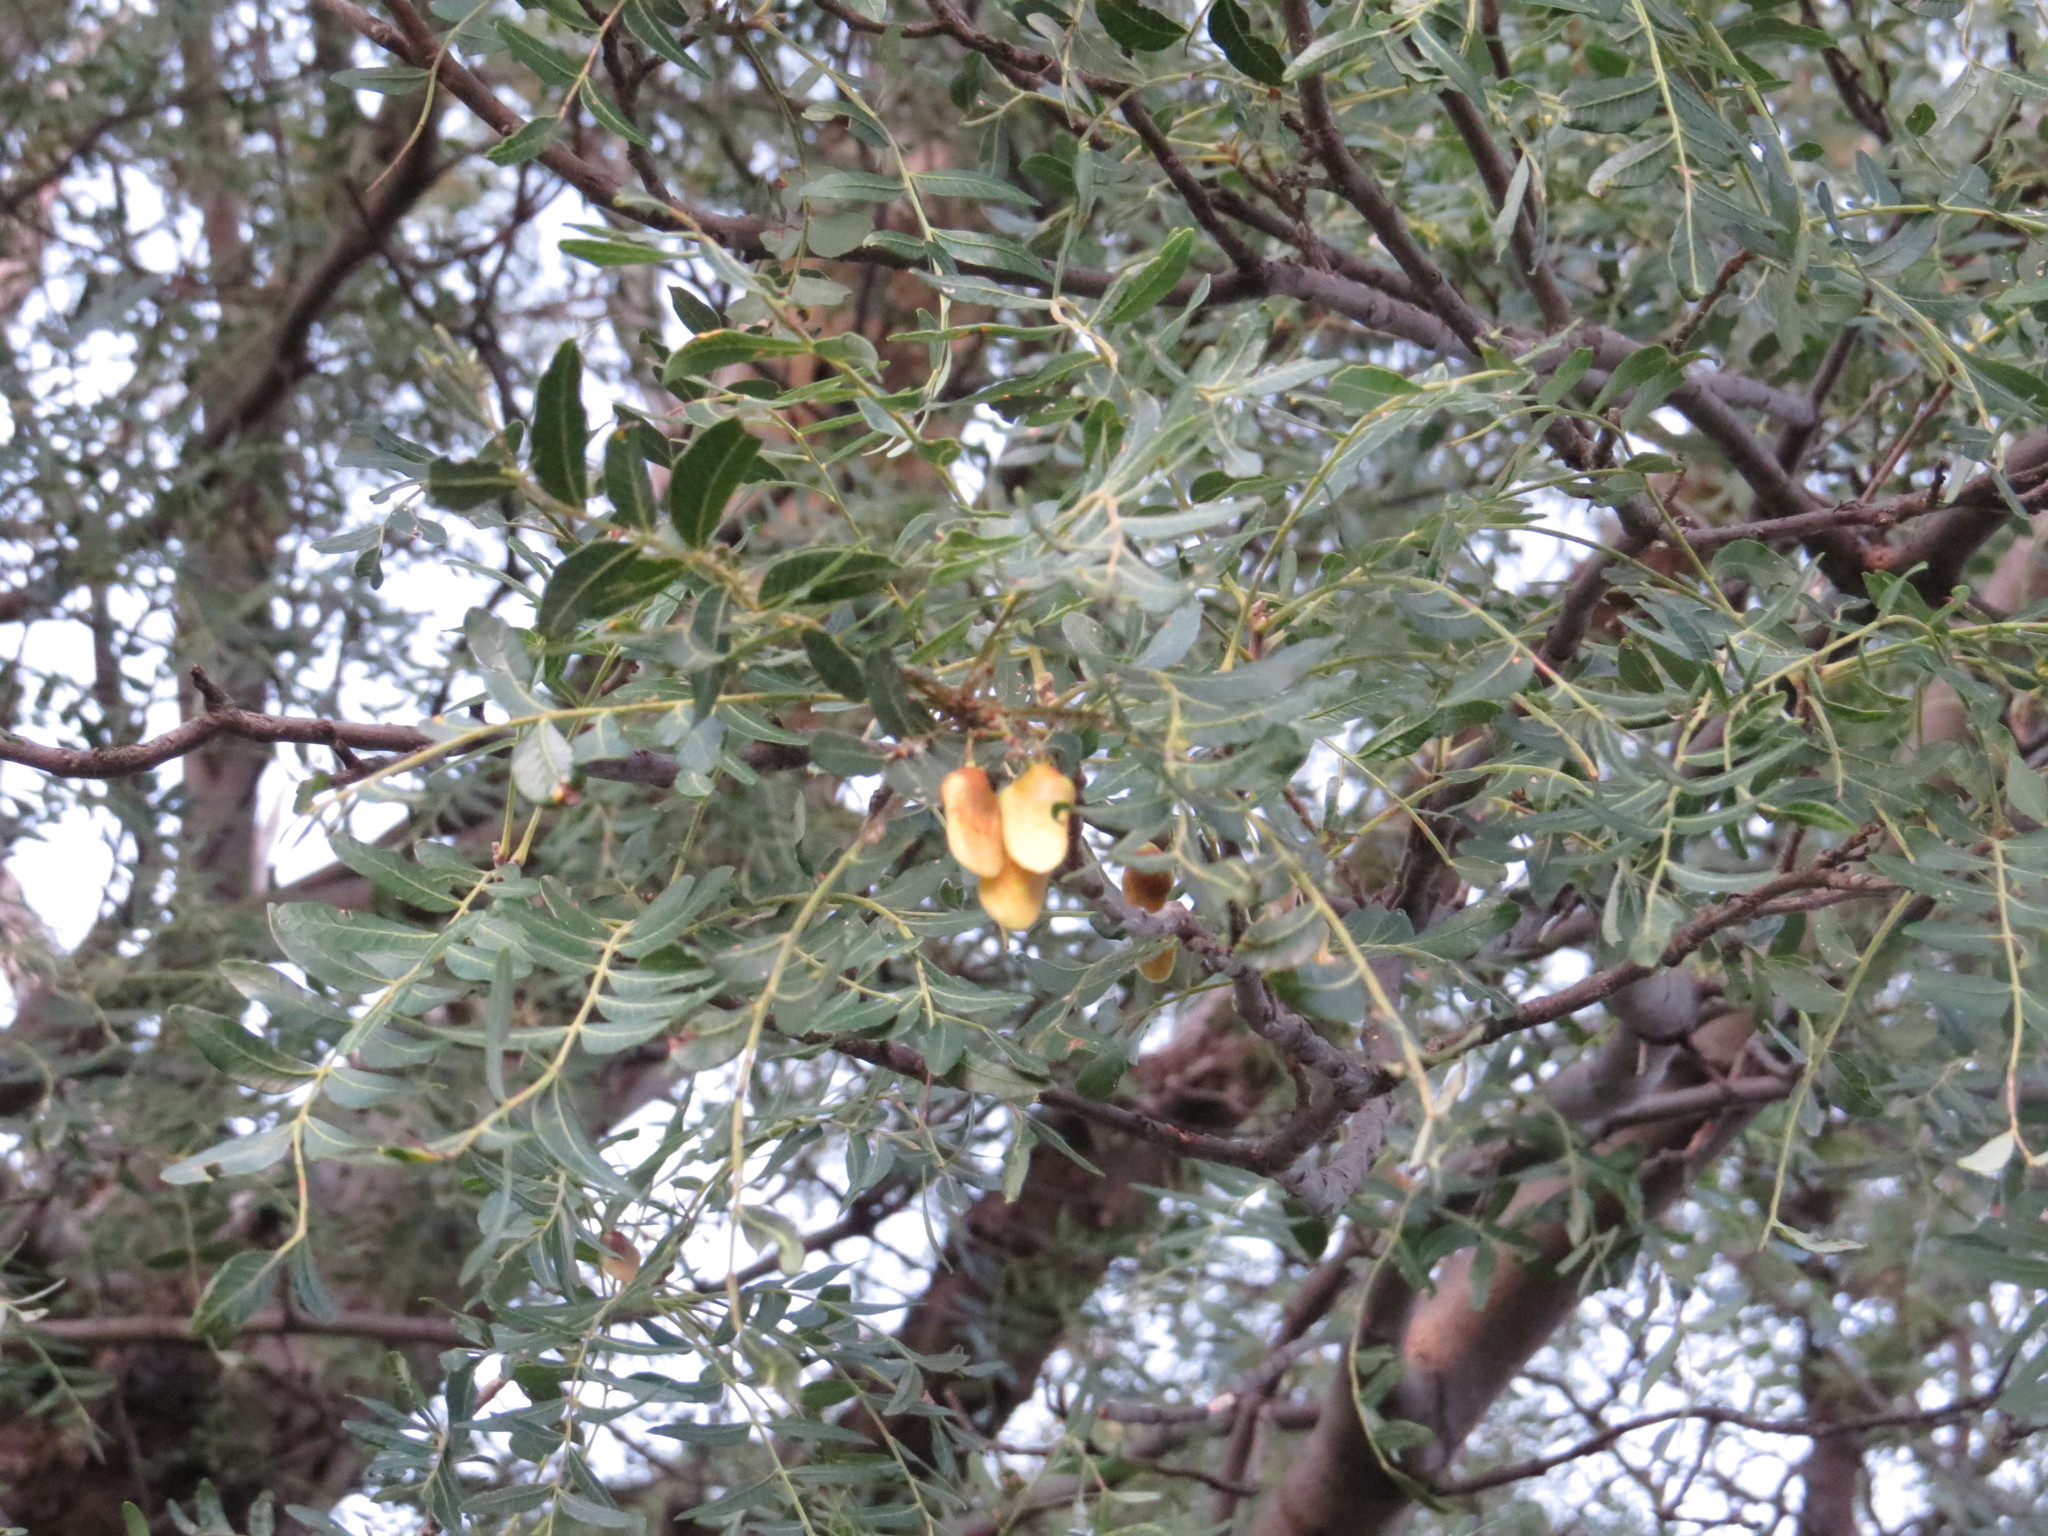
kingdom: Plantae
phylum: Tracheophyta
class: Magnoliopsida
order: Sapindales
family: Anacardiaceae
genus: Schinopsis
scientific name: Schinopsis lorentzii
